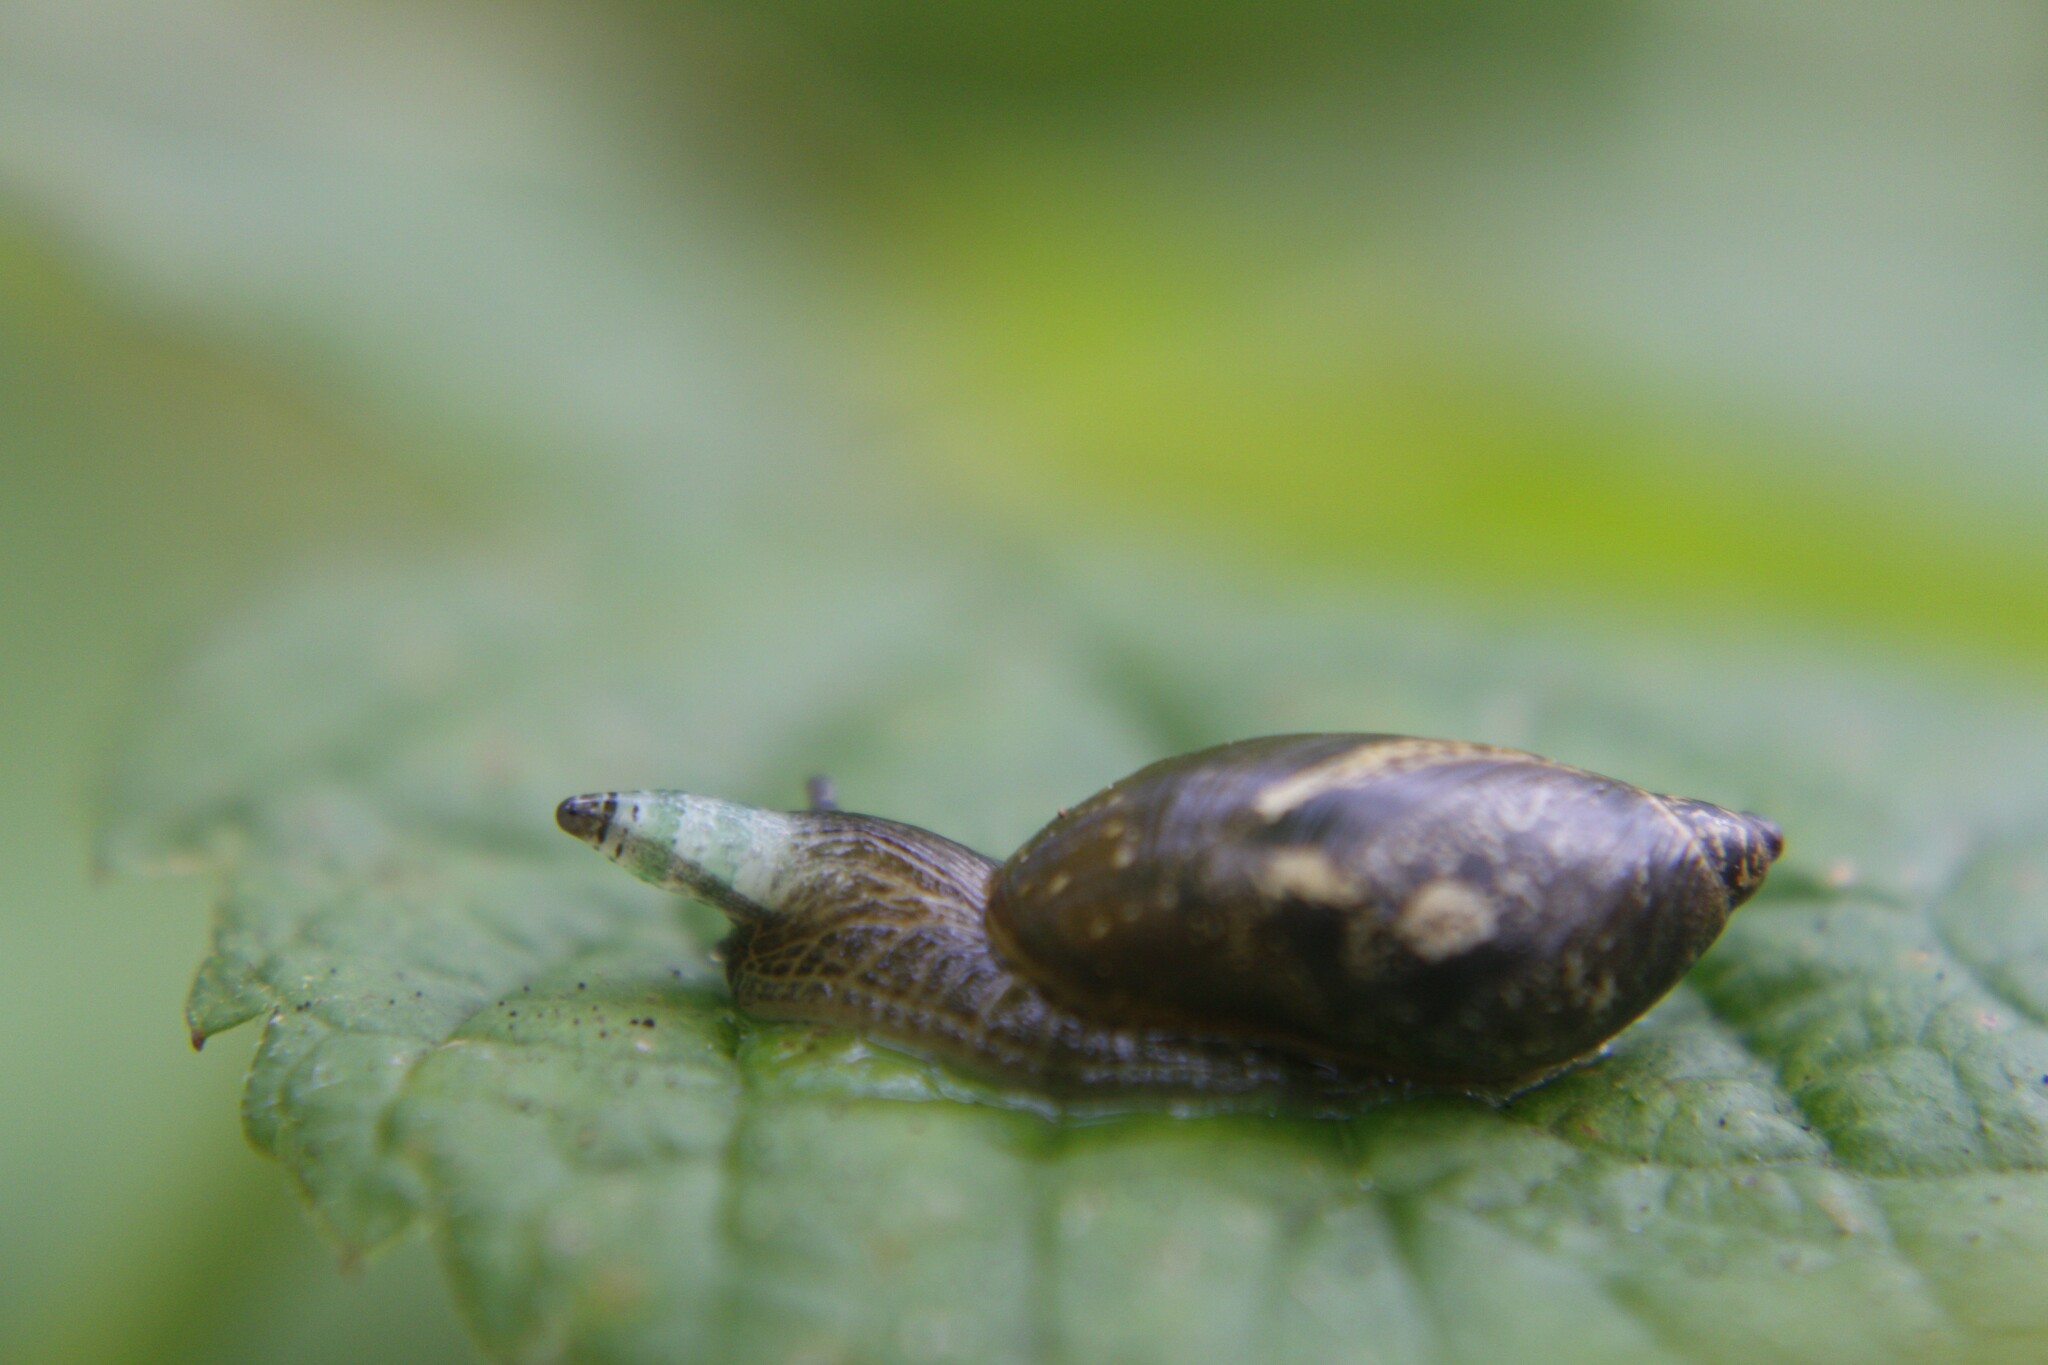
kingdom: Animalia
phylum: Platyhelminthes
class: Trematoda
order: Diplostomida
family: Leucochloridiidae
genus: Leucochloridium
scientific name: Leucochloridium paradoxum
